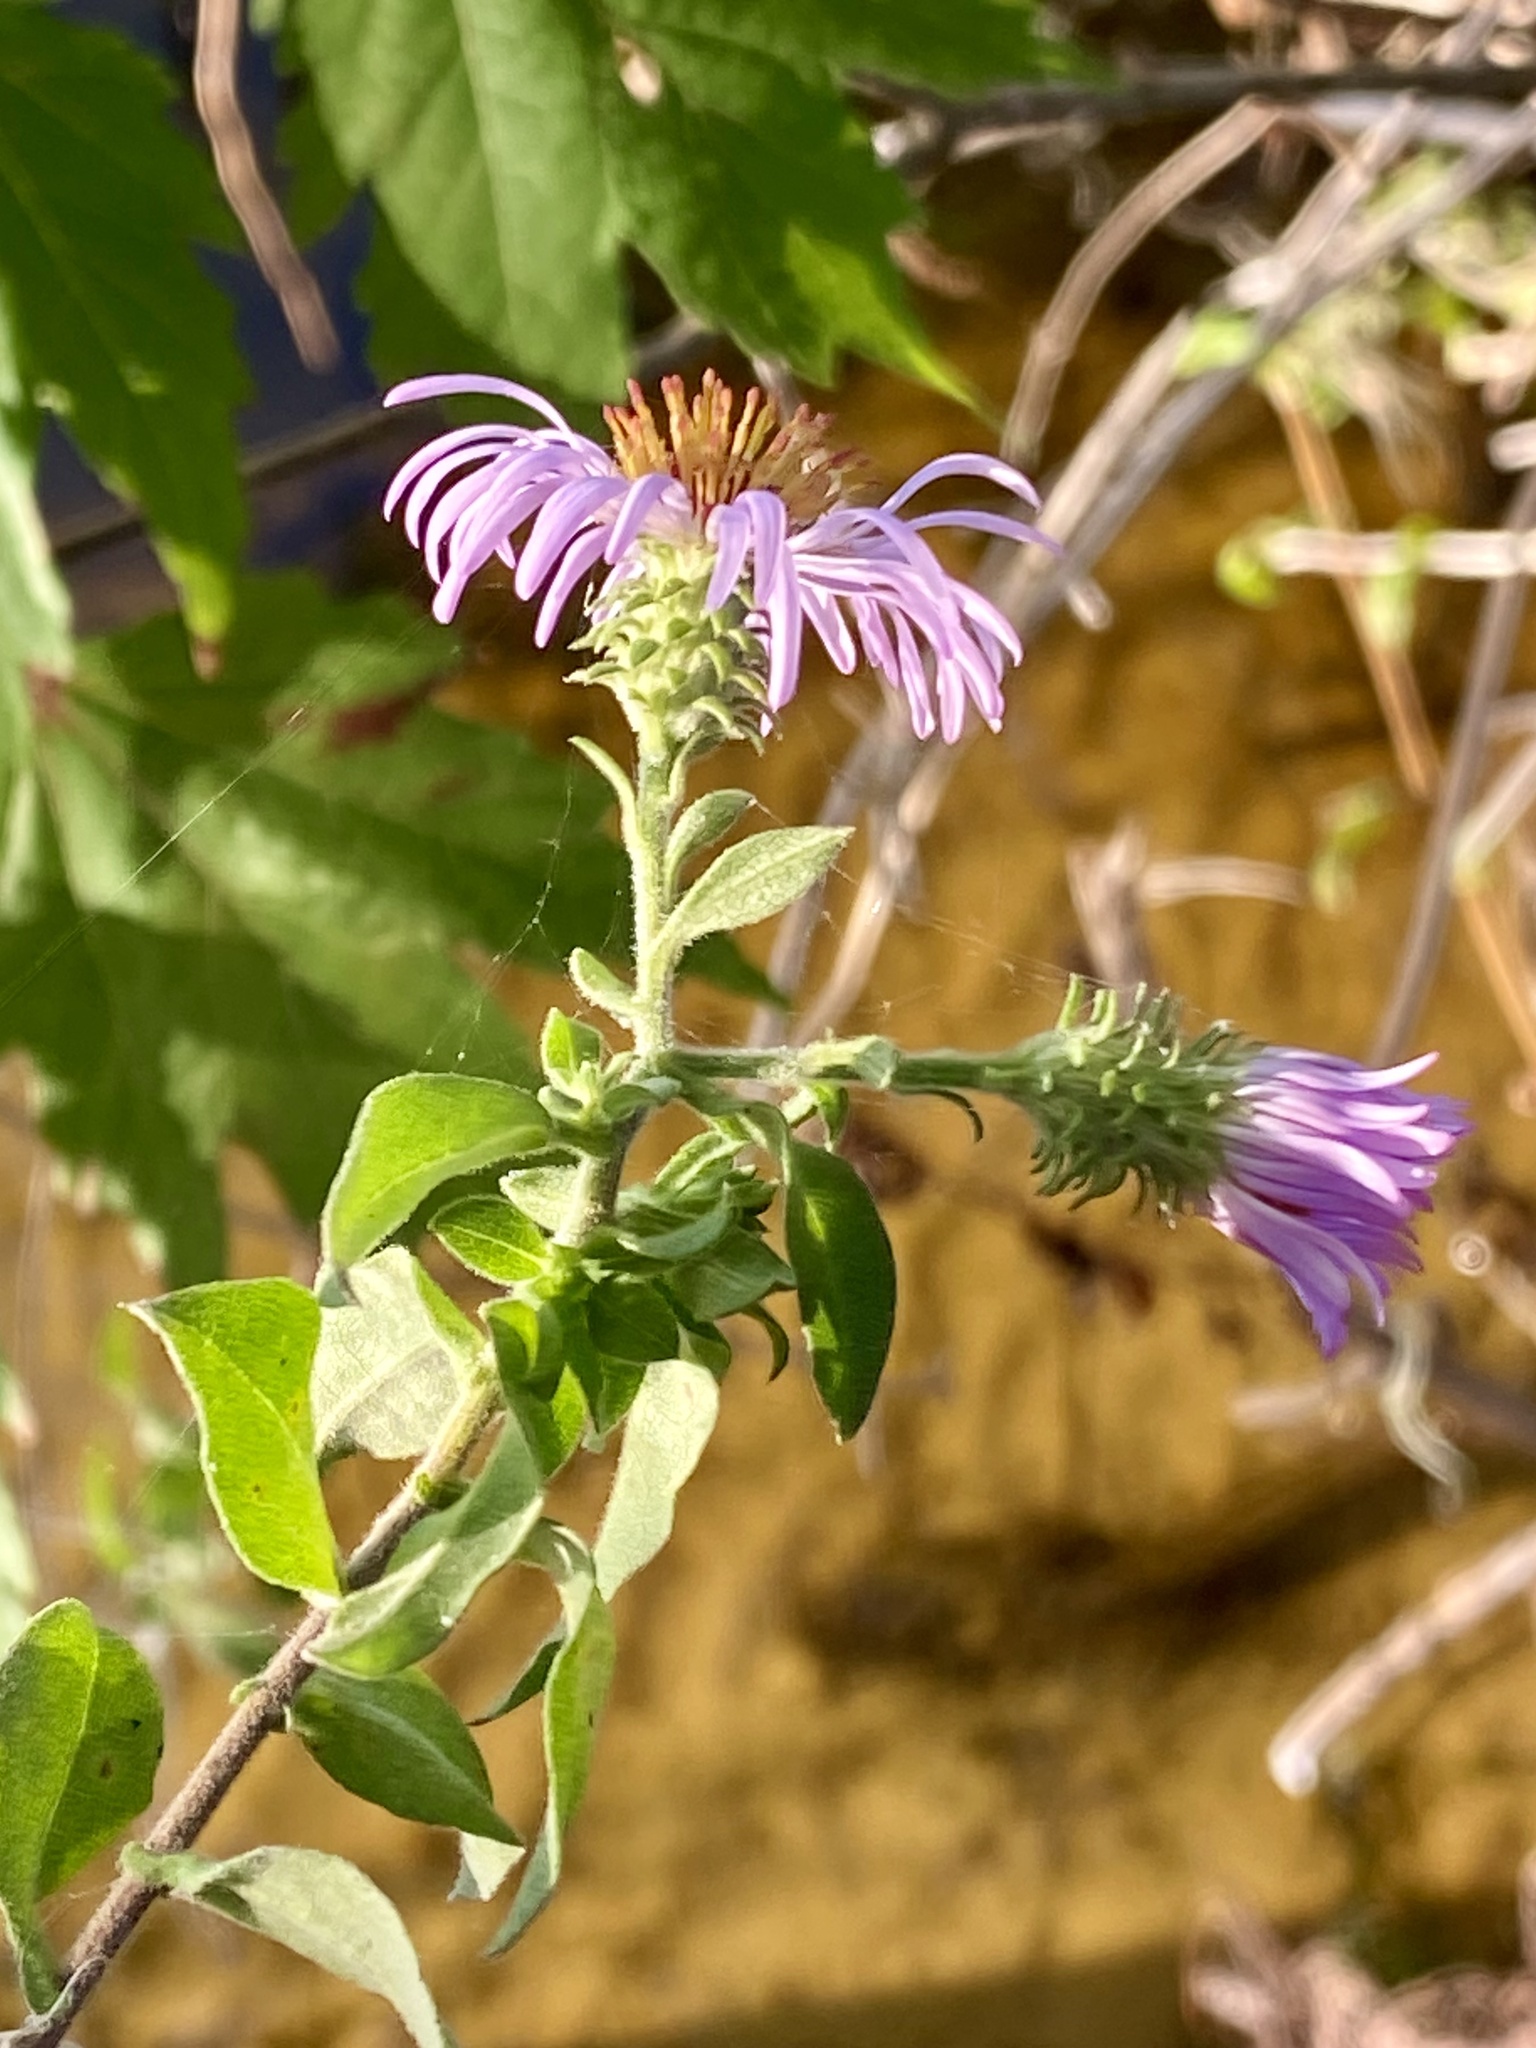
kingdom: Plantae
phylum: Tracheophyta
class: Magnoliopsida
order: Asterales
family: Asteraceae
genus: Ampelaster
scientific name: Ampelaster carolinianus
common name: Climbing aster
